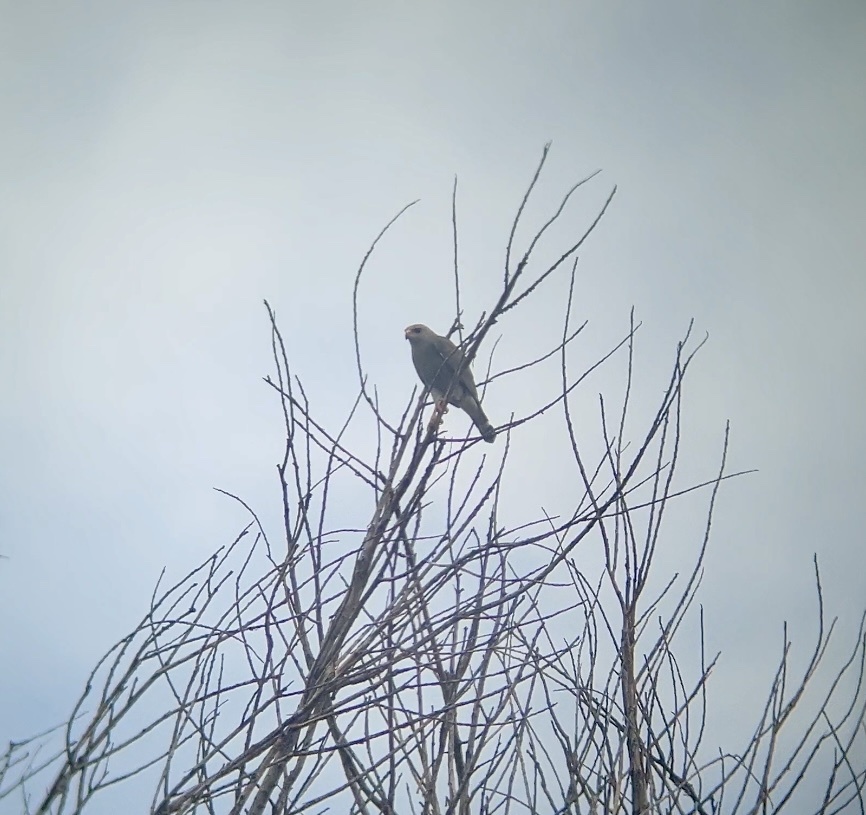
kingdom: Animalia
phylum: Chordata
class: Aves
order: Accipitriformes
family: Accipitridae
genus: Buteo
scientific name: Buteo nitidus
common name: Grey-lined hawk
